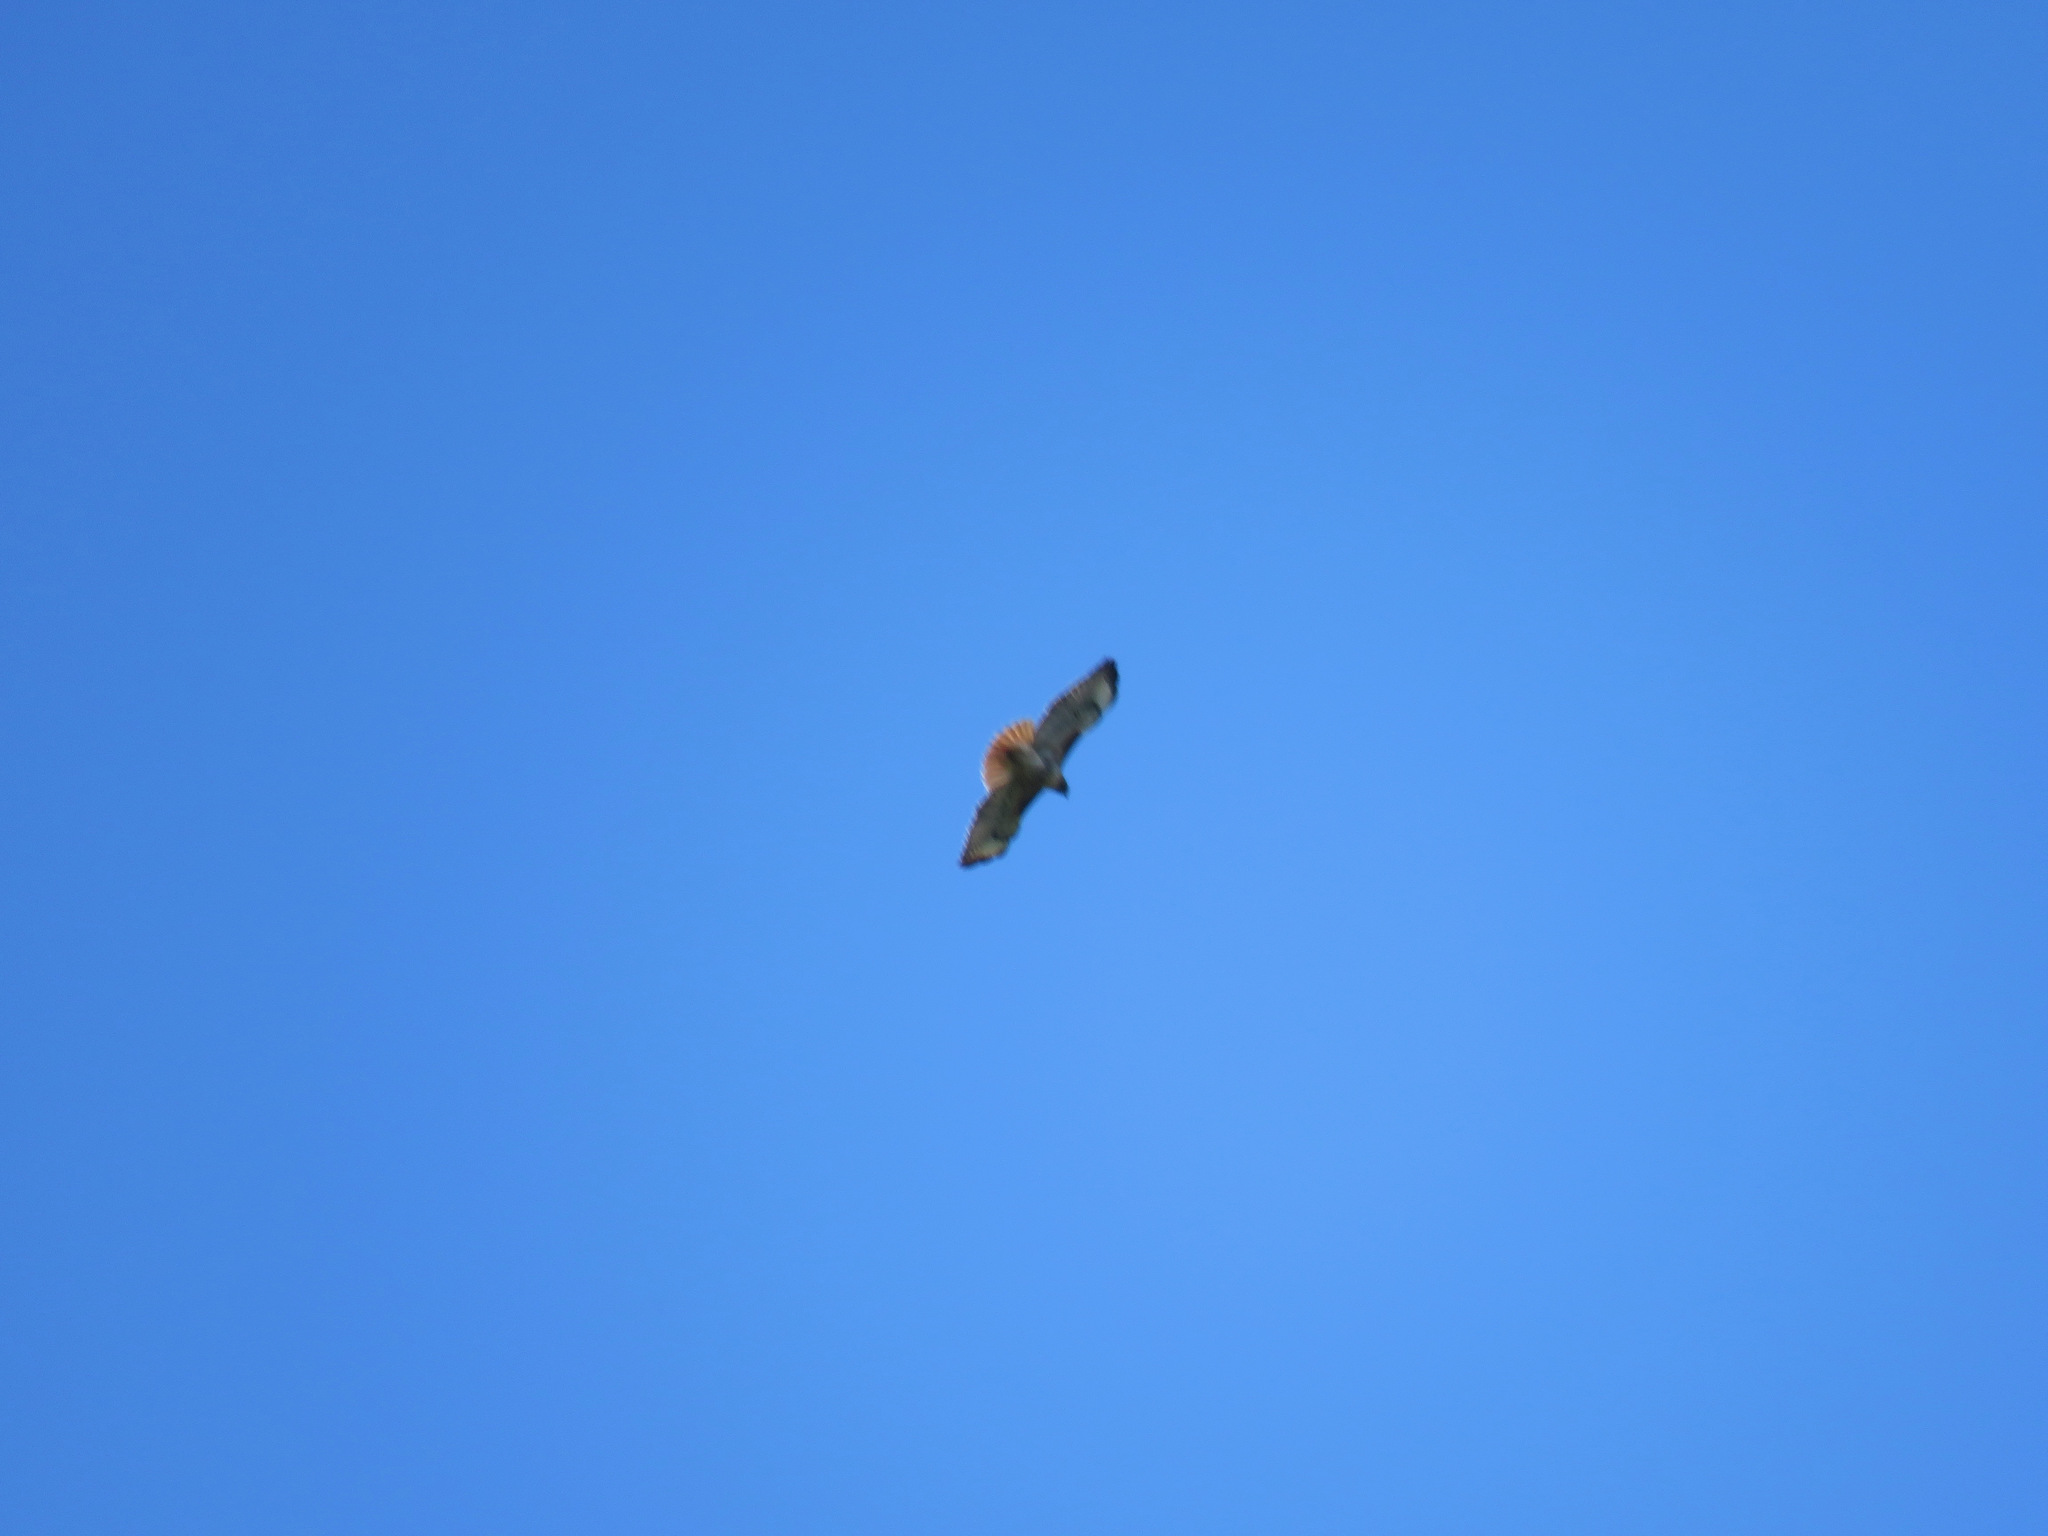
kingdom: Animalia
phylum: Chordata
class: Aves
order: Accipitriformes
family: Accipitridae
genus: Buteo
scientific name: Buteo jamaicensis
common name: Red-tailed hawk
